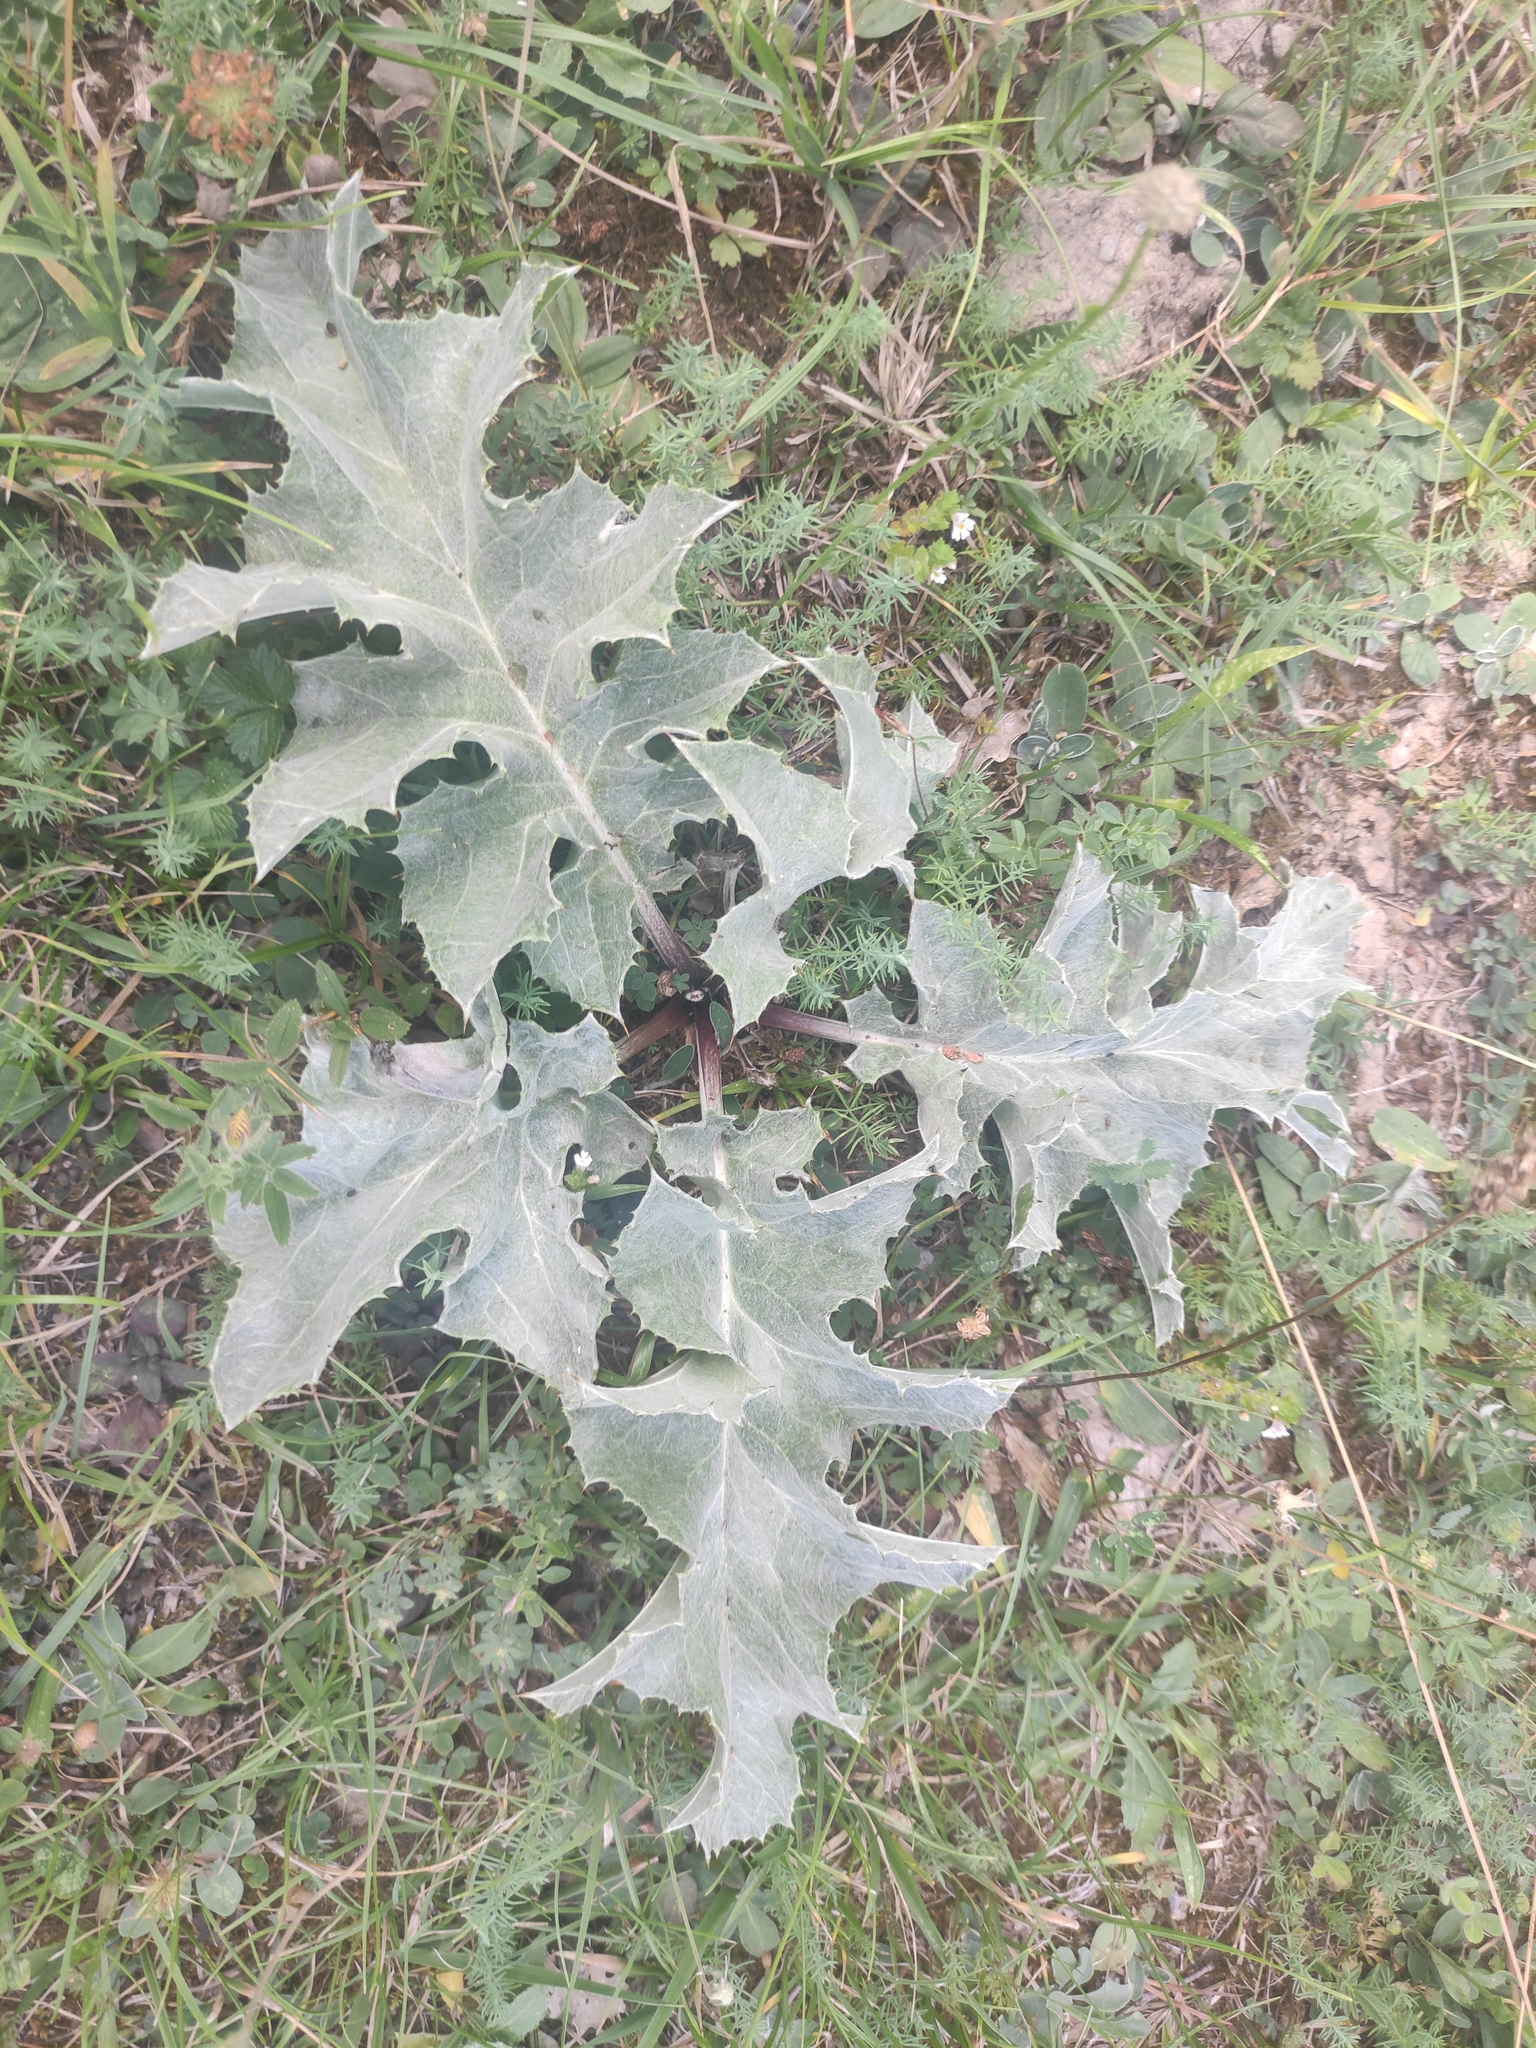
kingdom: Plantae
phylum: Tracheophyta
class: Magnoliopsida
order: Asterales
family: Asteraceae
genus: Carlina
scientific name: Carlina acanthifolia
